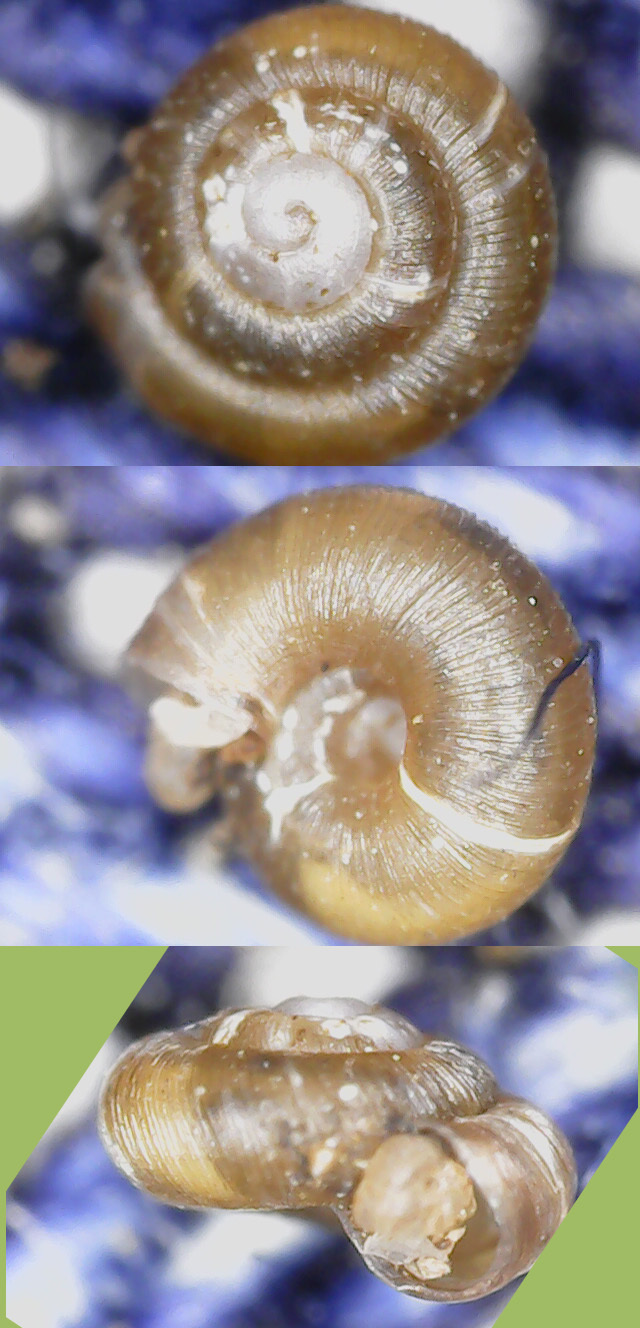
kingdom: Animalia
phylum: Mollusca
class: Gastropoda
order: Stylommatophora
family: Punctidae
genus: Punctum
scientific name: Punctum pygmaeum
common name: Dwarf snail
